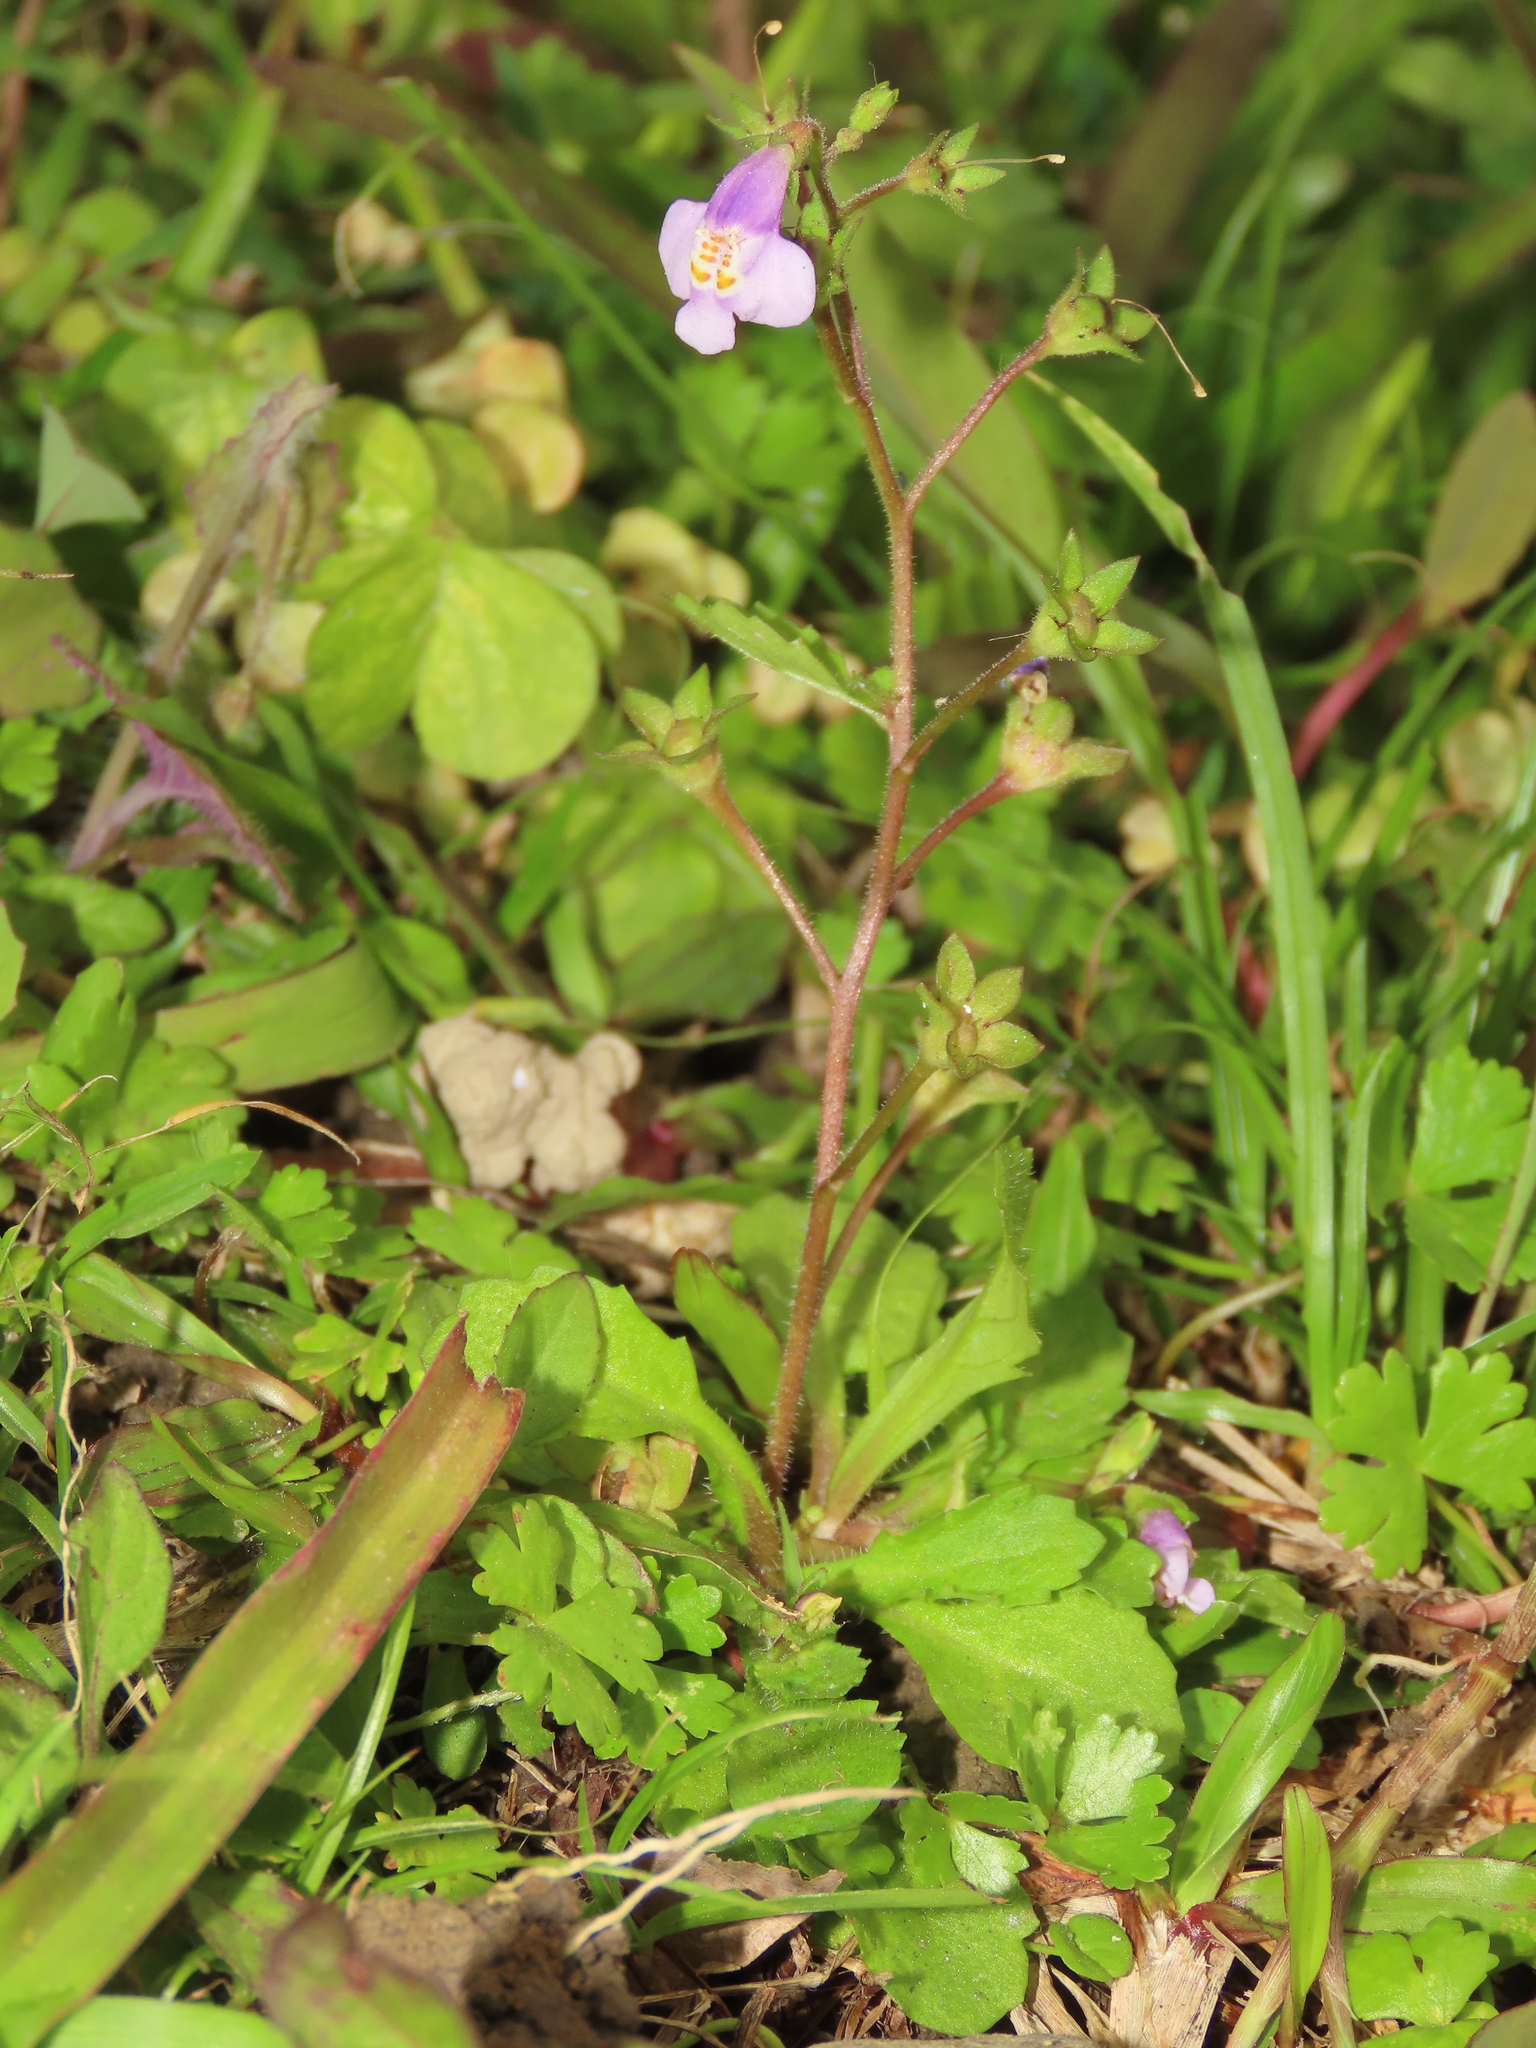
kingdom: Plantae
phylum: Tracheophyta
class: Magnoliopsida
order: Lamiales
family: Mazaceae
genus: Mazus
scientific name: Mazus fauriei
